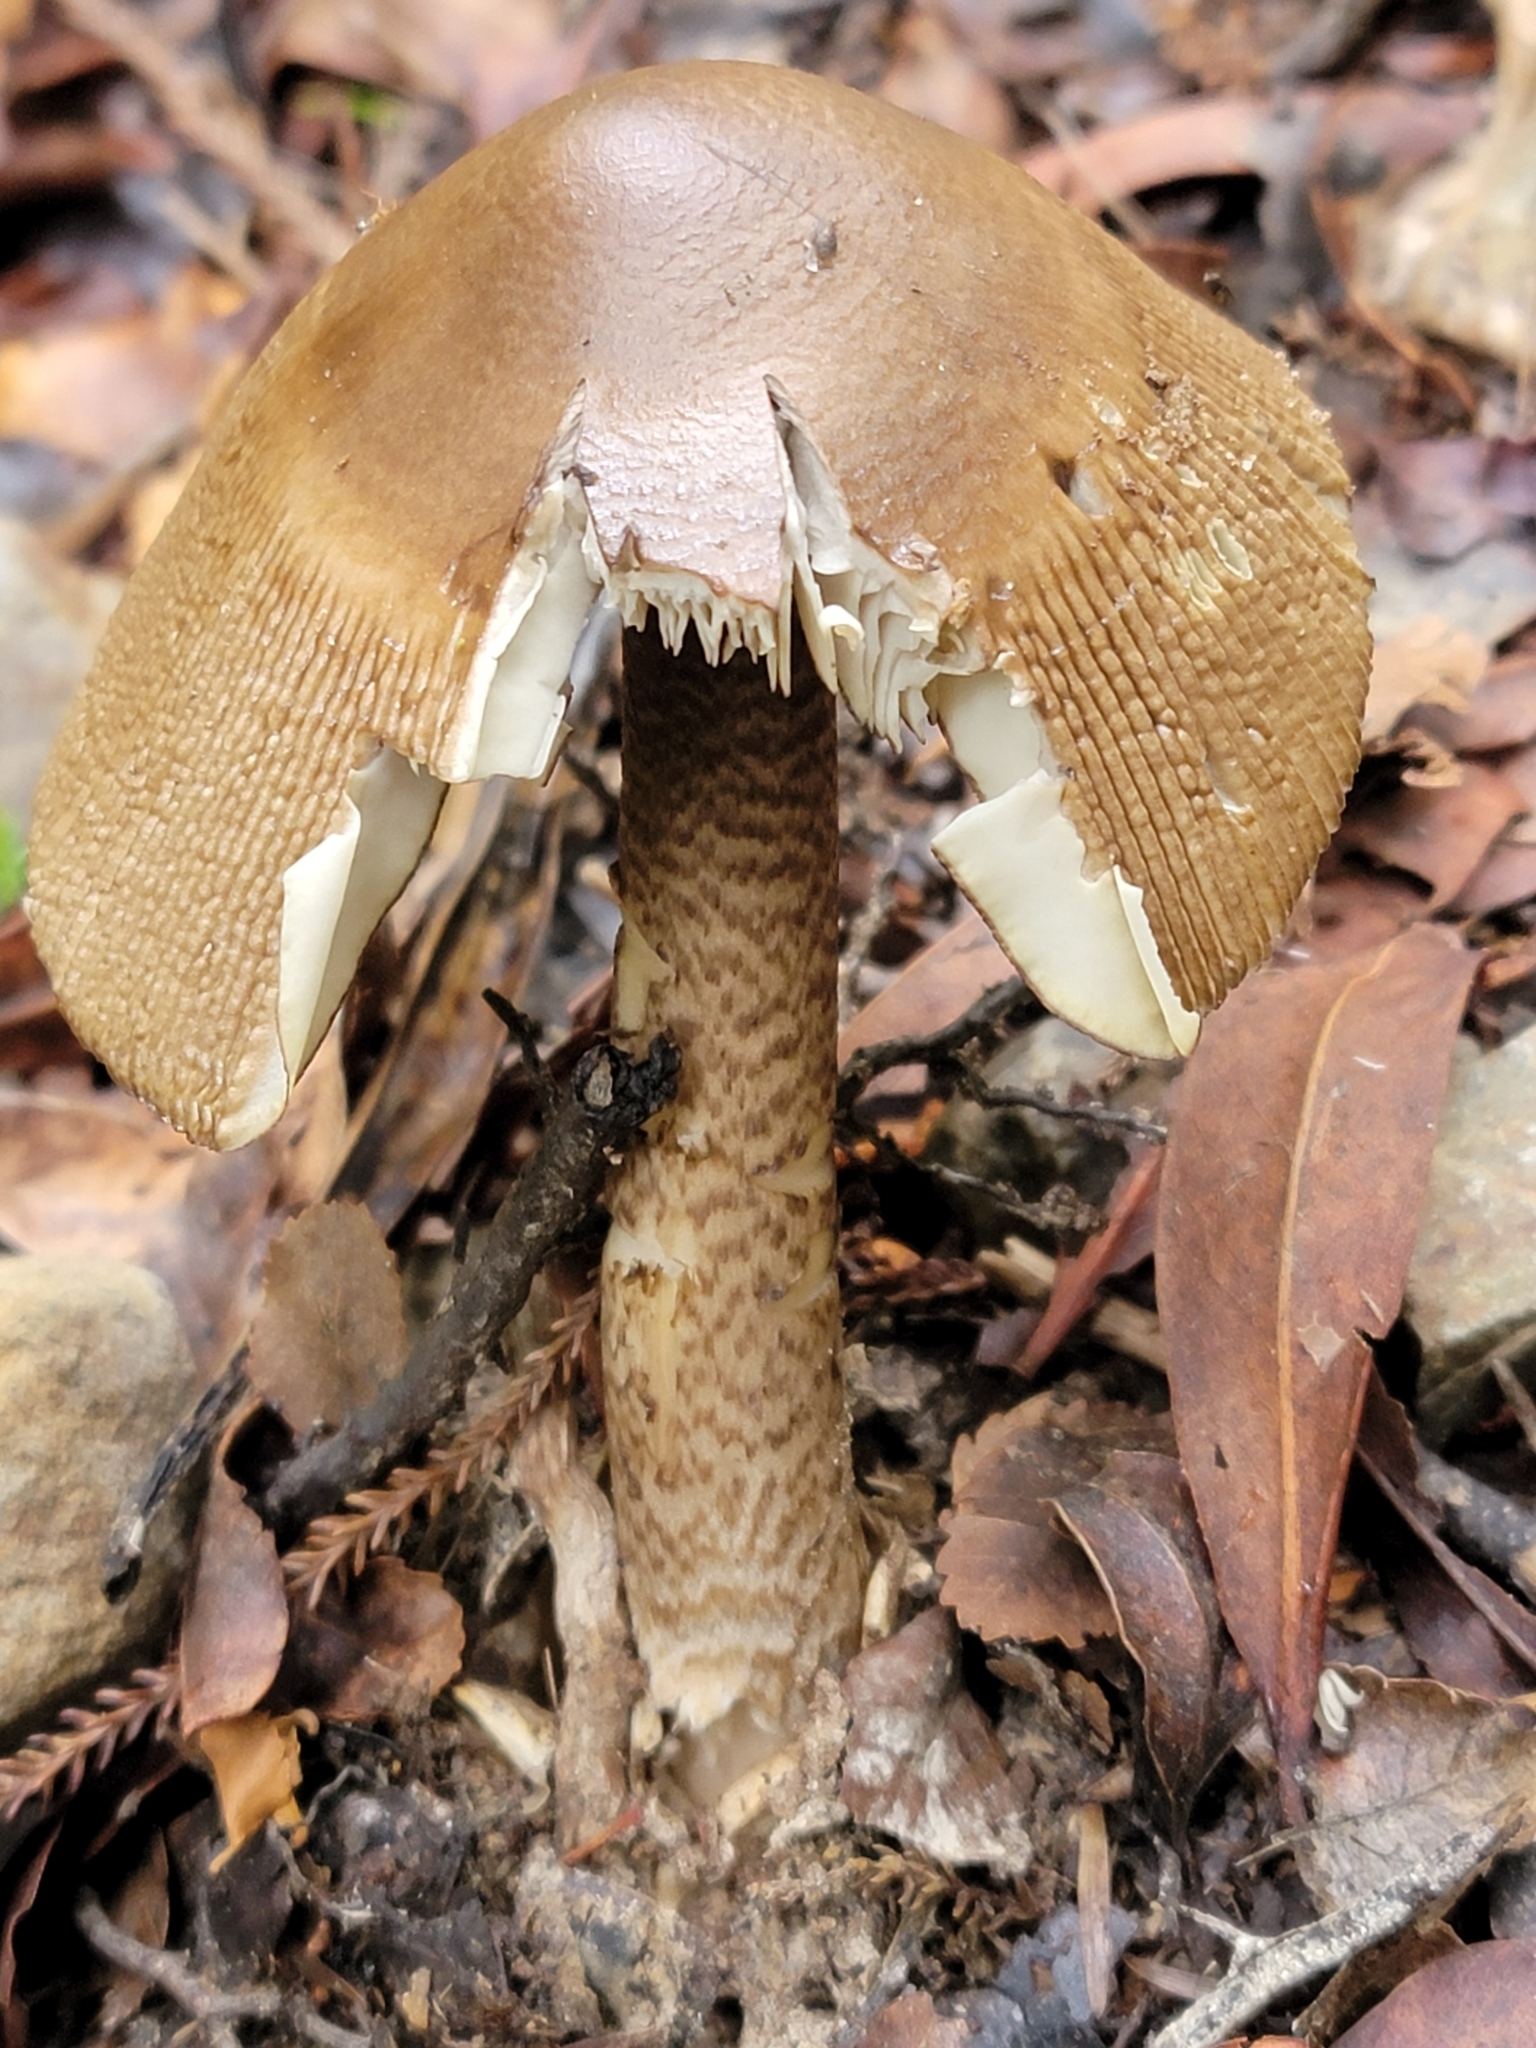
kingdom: Fungi
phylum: Basidiomycota
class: Agaricomycetes
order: Agaricales
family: Amanitaceae
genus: Amanita
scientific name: Amanita pekeoides
